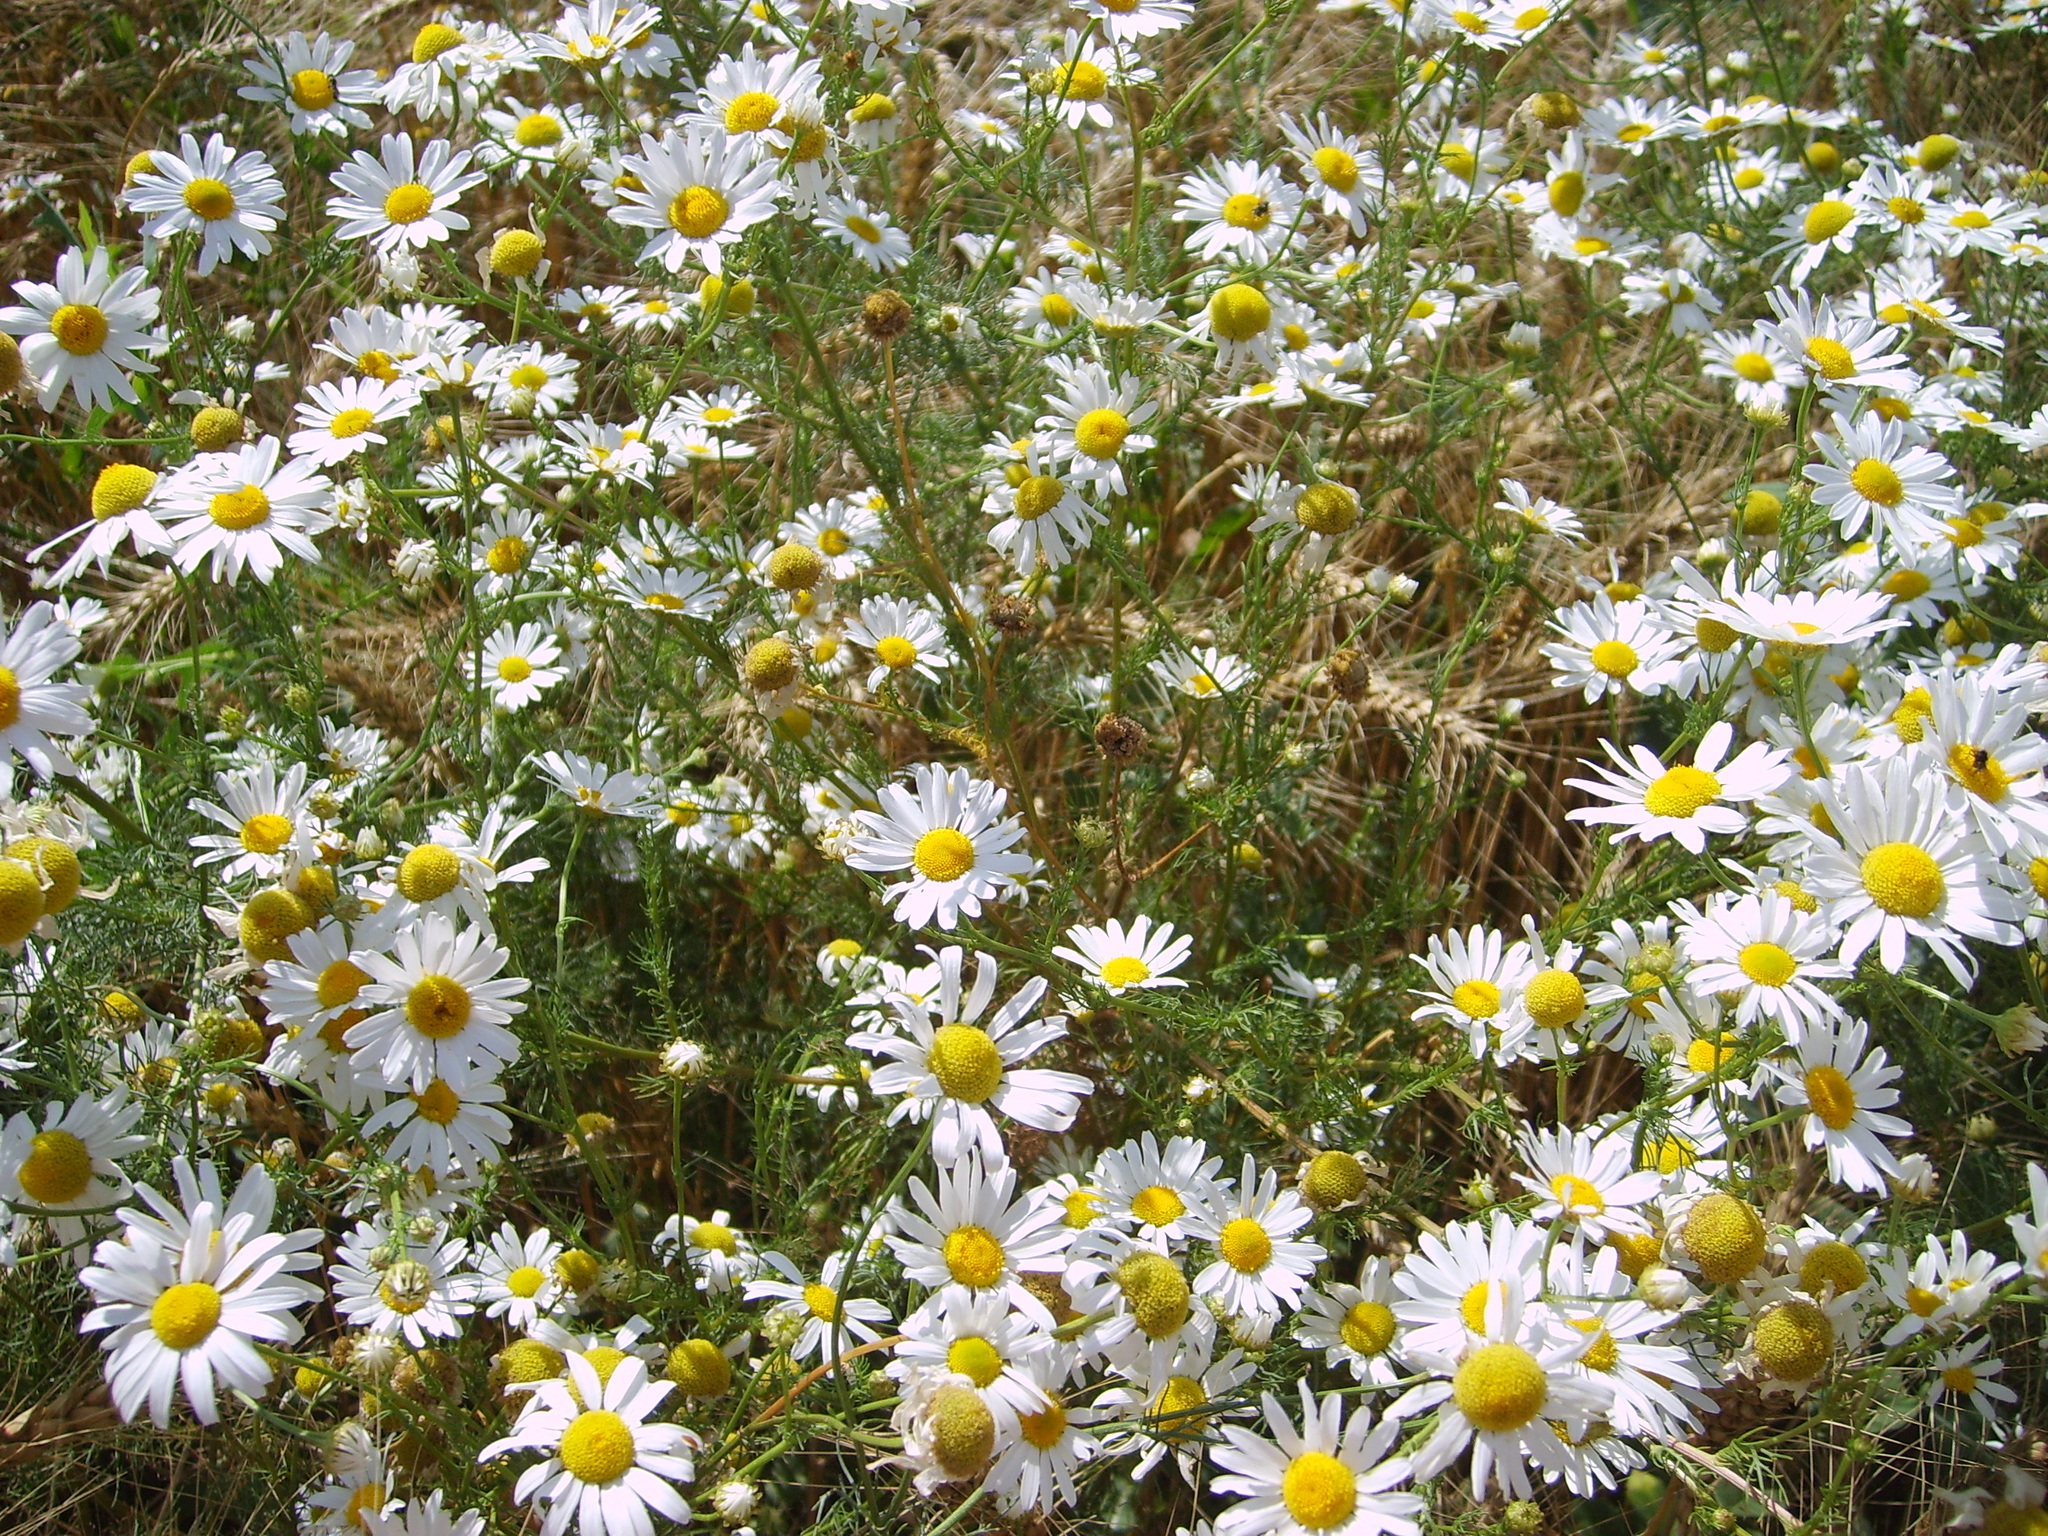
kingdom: Plantae
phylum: Tracheophyta
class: Magnoliopsida
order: Asterales
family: Asteraceae
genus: Tripleurospermum
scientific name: Tripleurospermum inodorum
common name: Scentless mayweed
